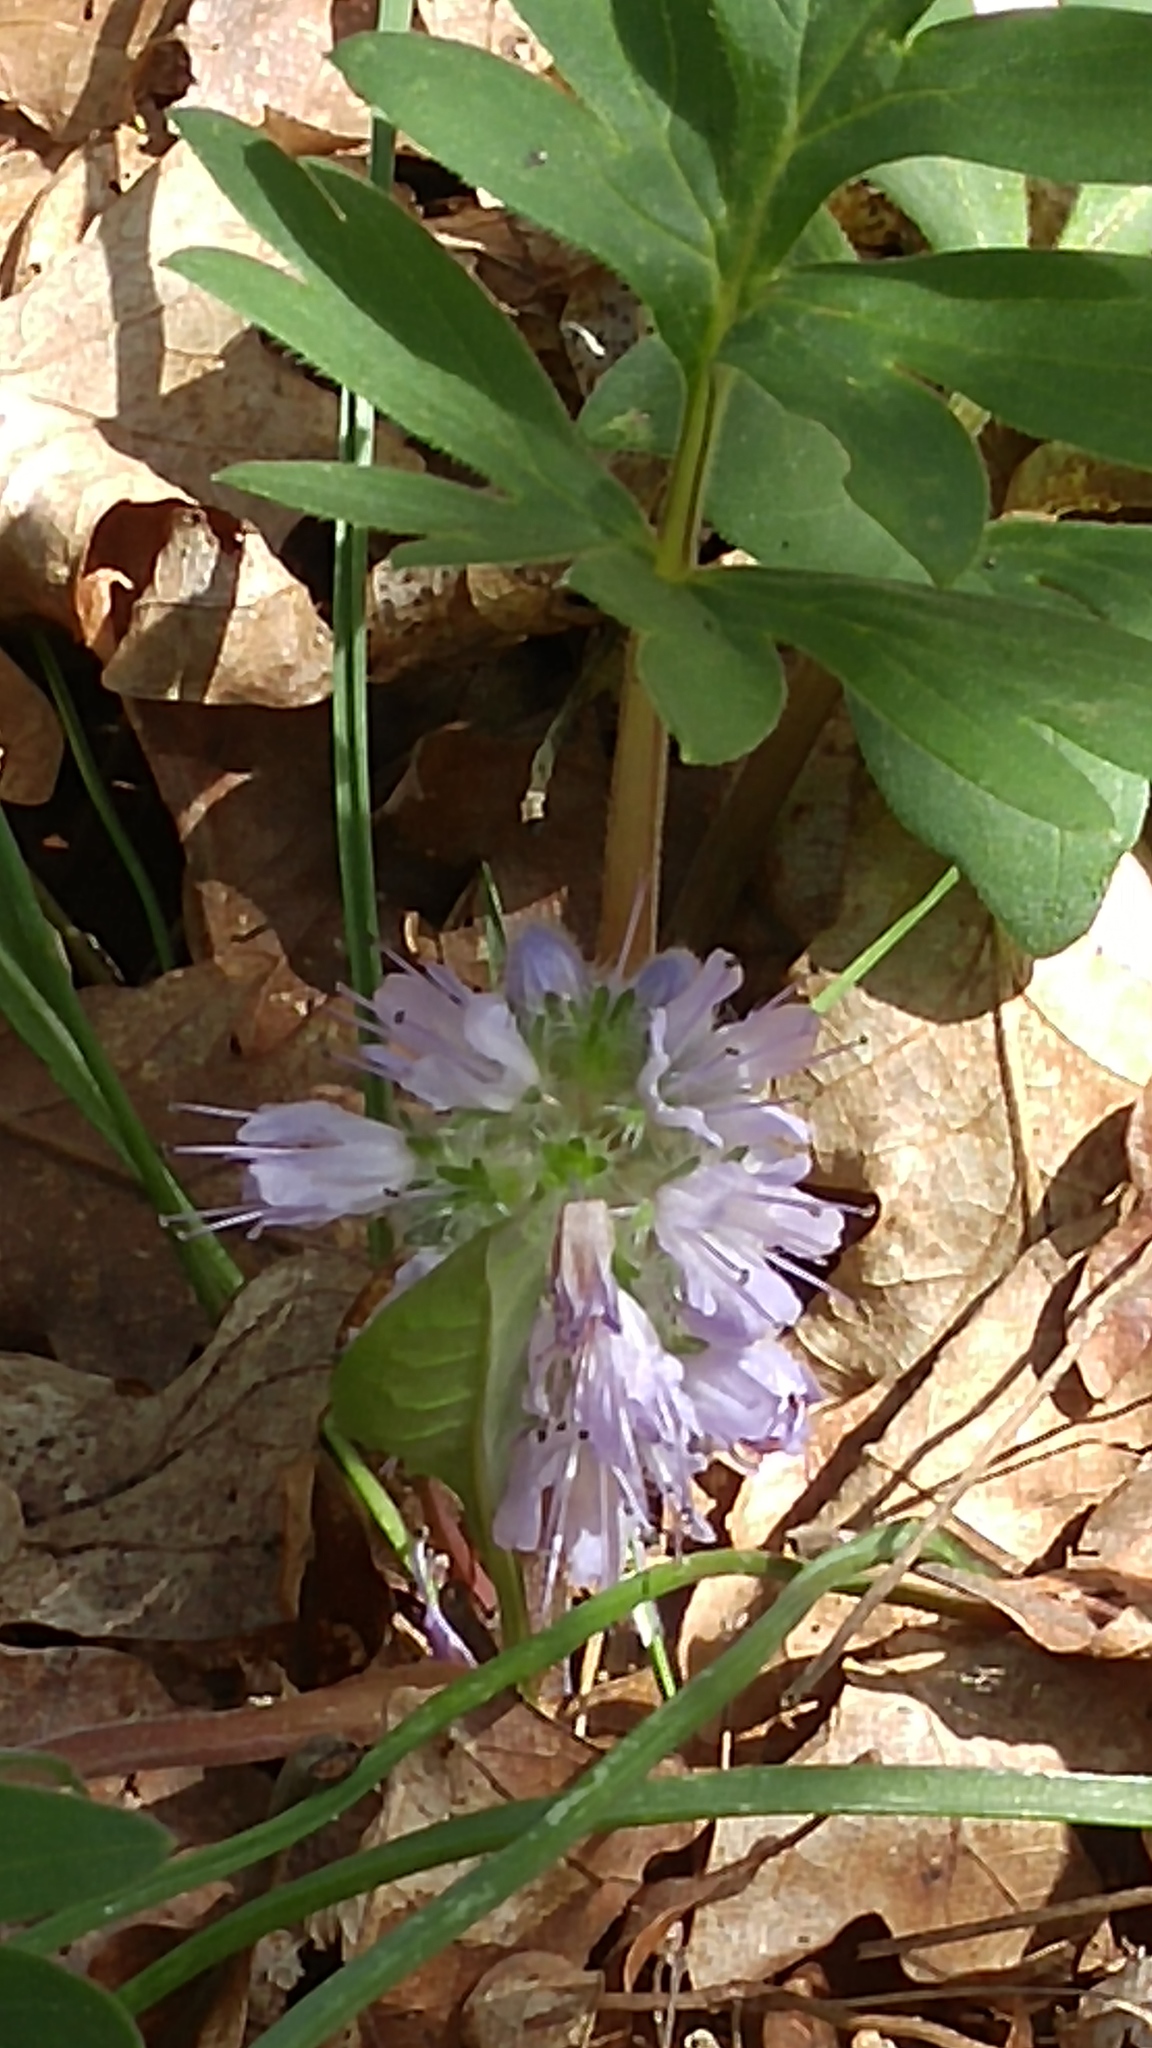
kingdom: Plantae
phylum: Tracheophyta
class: Magnoliopsida
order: Boraginales
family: Hydrophyllaceae
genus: Hydrophyllum
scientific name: Hydrophyllum capitatum
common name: Woollen-breeches
